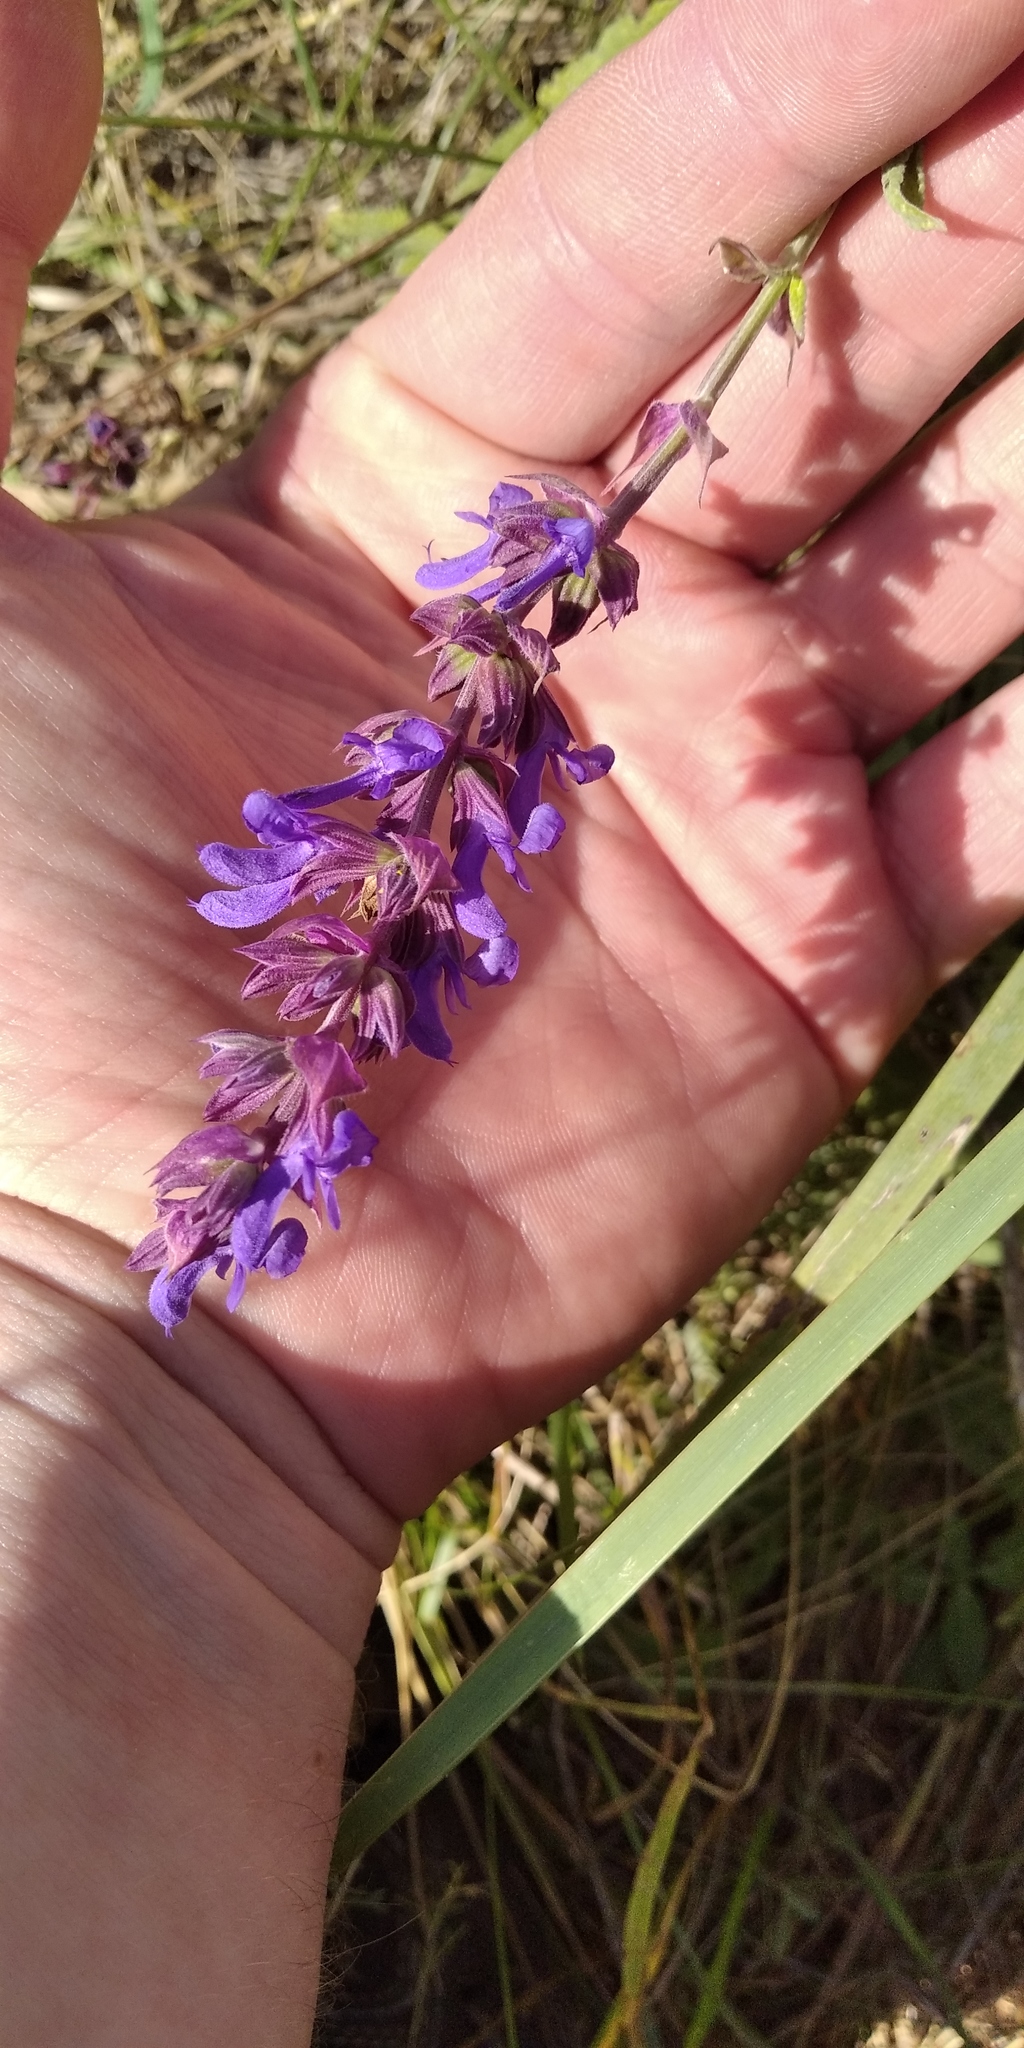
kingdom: Plantae
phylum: Tracheophyta
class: Magnoliopsida
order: Lamiales
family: Lamiaceae
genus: Salvia
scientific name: Salvia nemorosa
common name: Balkan clary
